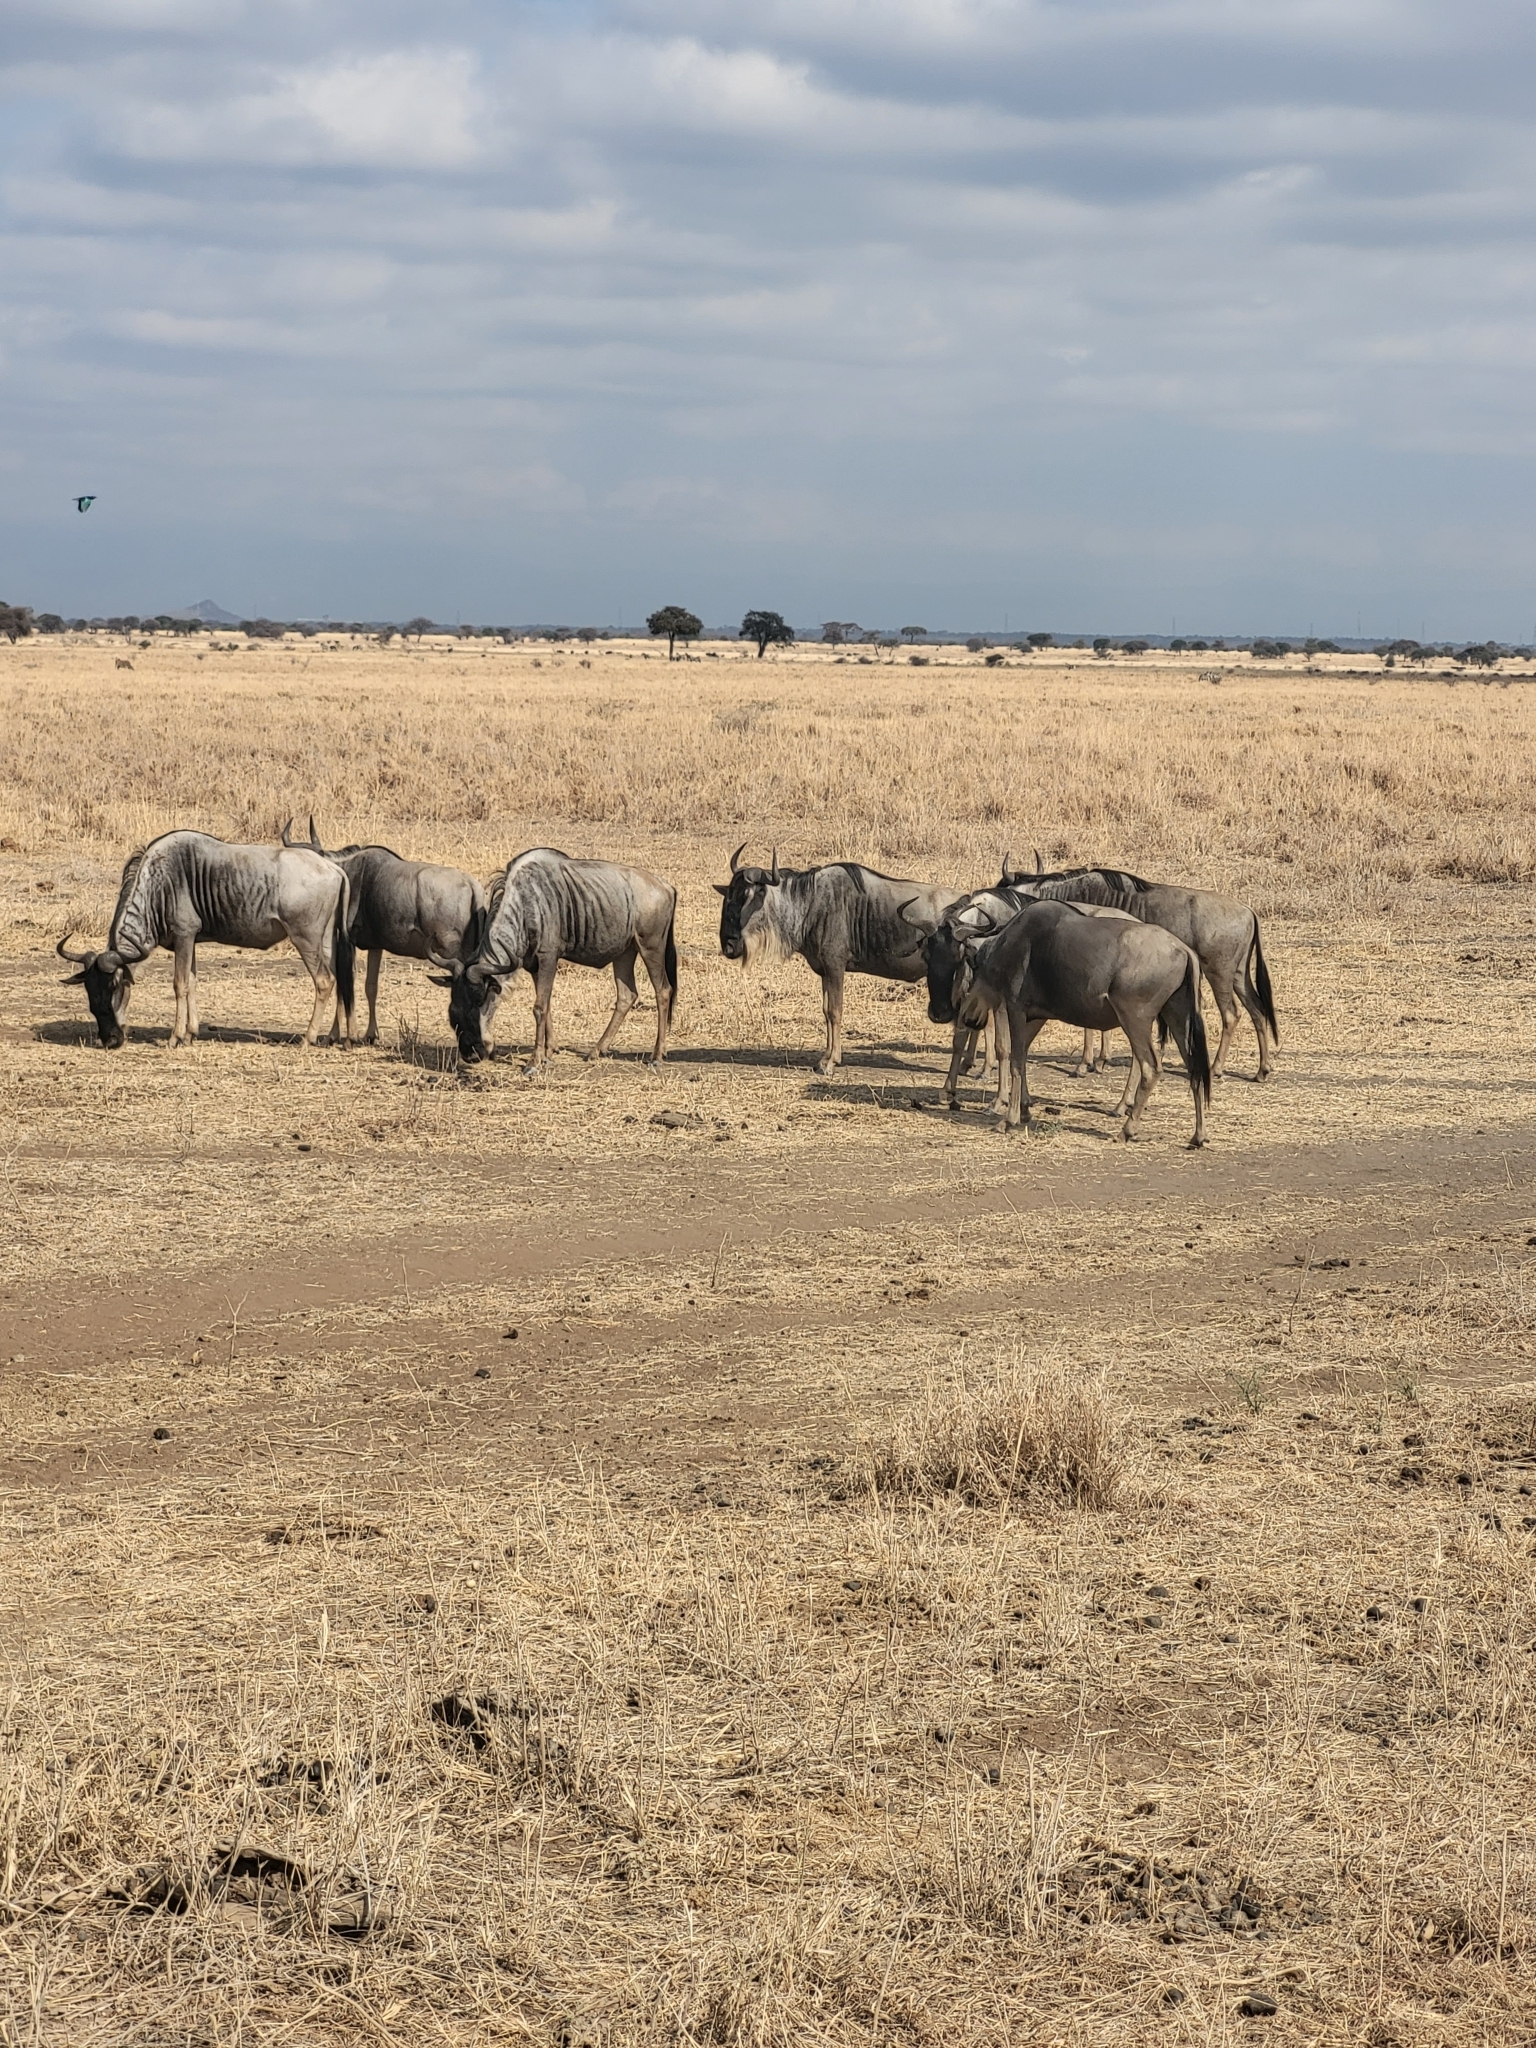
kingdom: Animalia
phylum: Chordata
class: Mammalia
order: Artiodactyla
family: Bovidae
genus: Connochaetes
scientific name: Connochaetes taurinus
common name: Blue wildebeest
